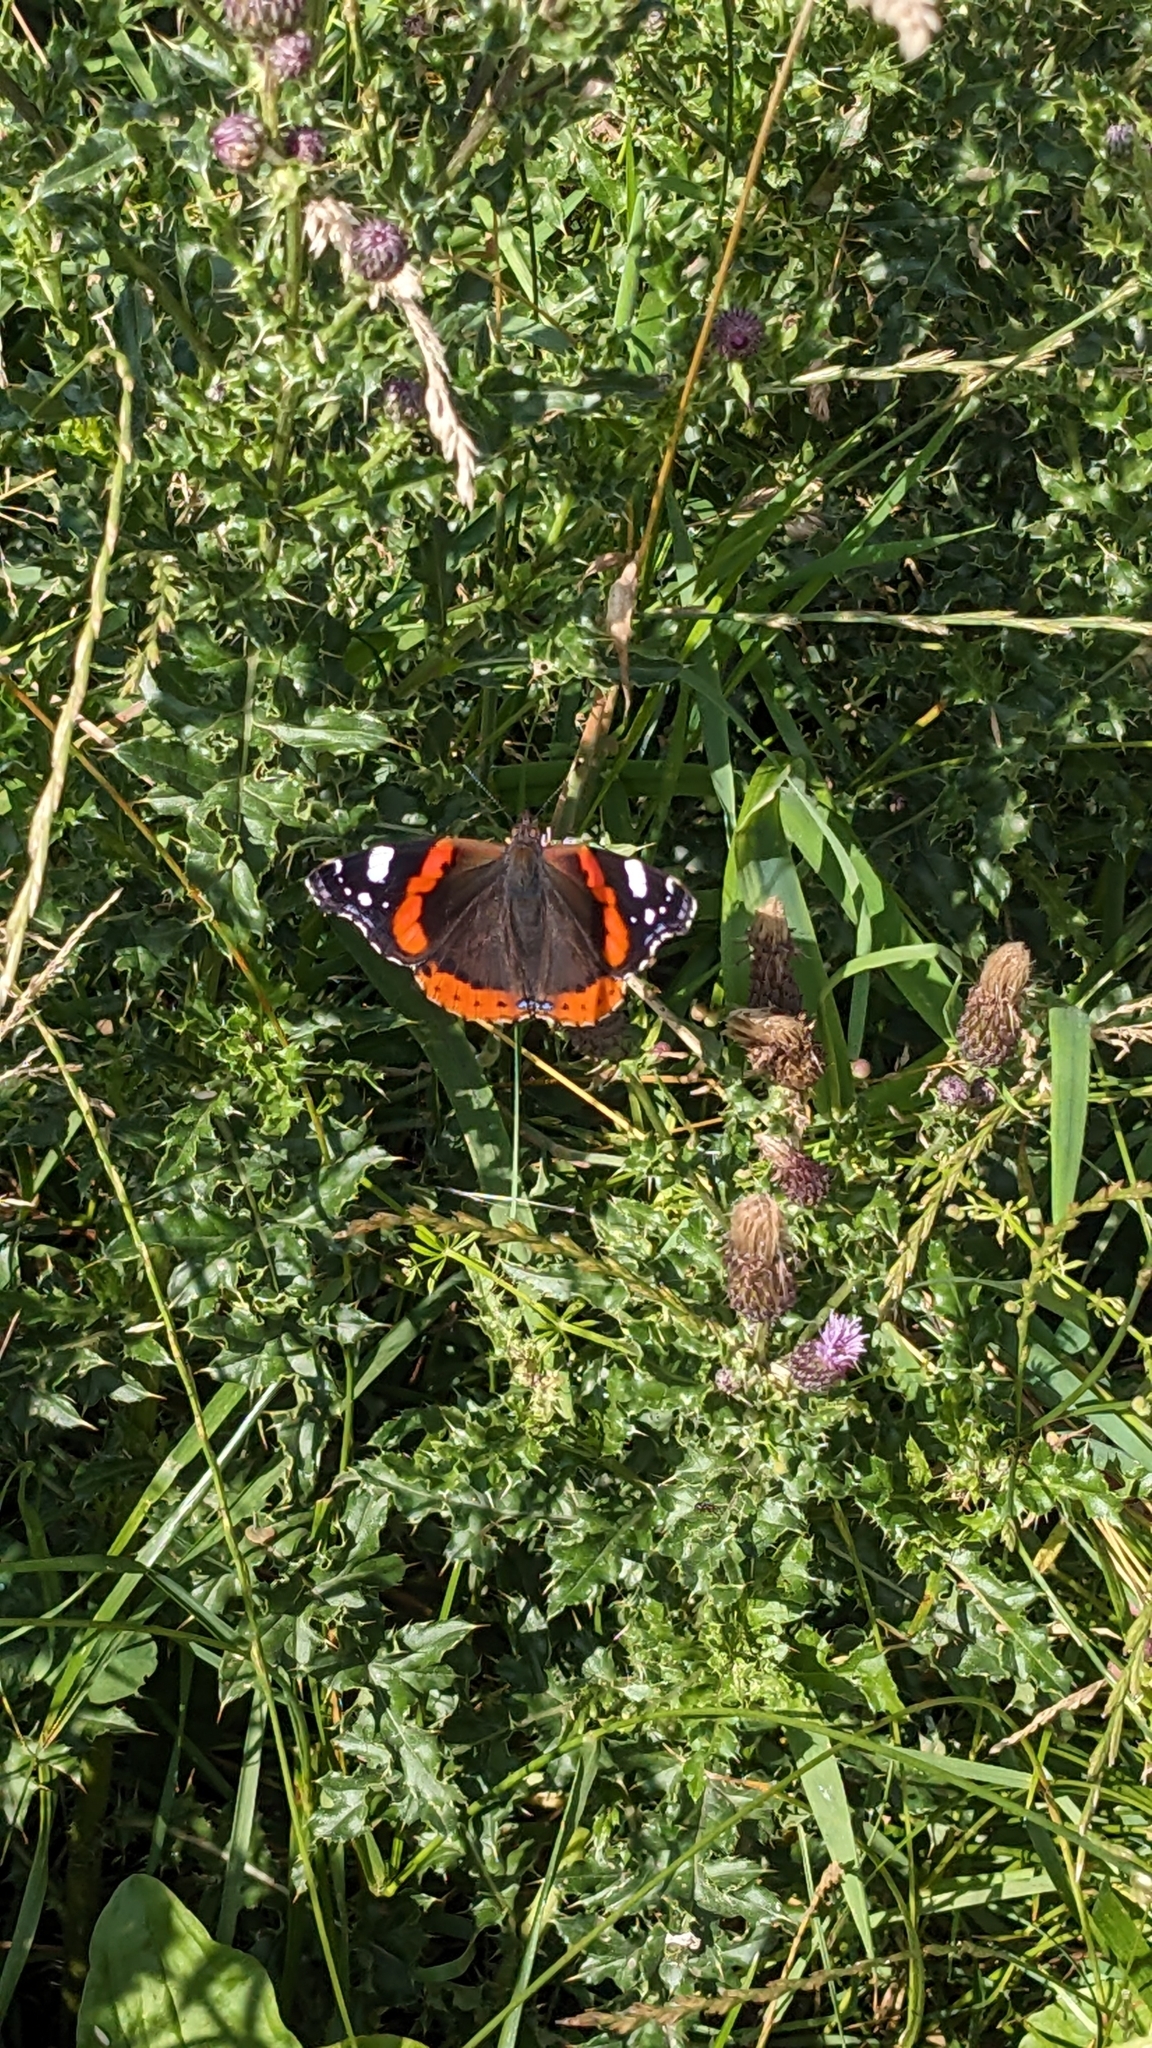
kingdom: Animalia
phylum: Arthropoda
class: Insecta
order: Lepidoptera
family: Nymphalidae
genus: Vanessa
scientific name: Vanessa atalanta
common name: Red admiral
